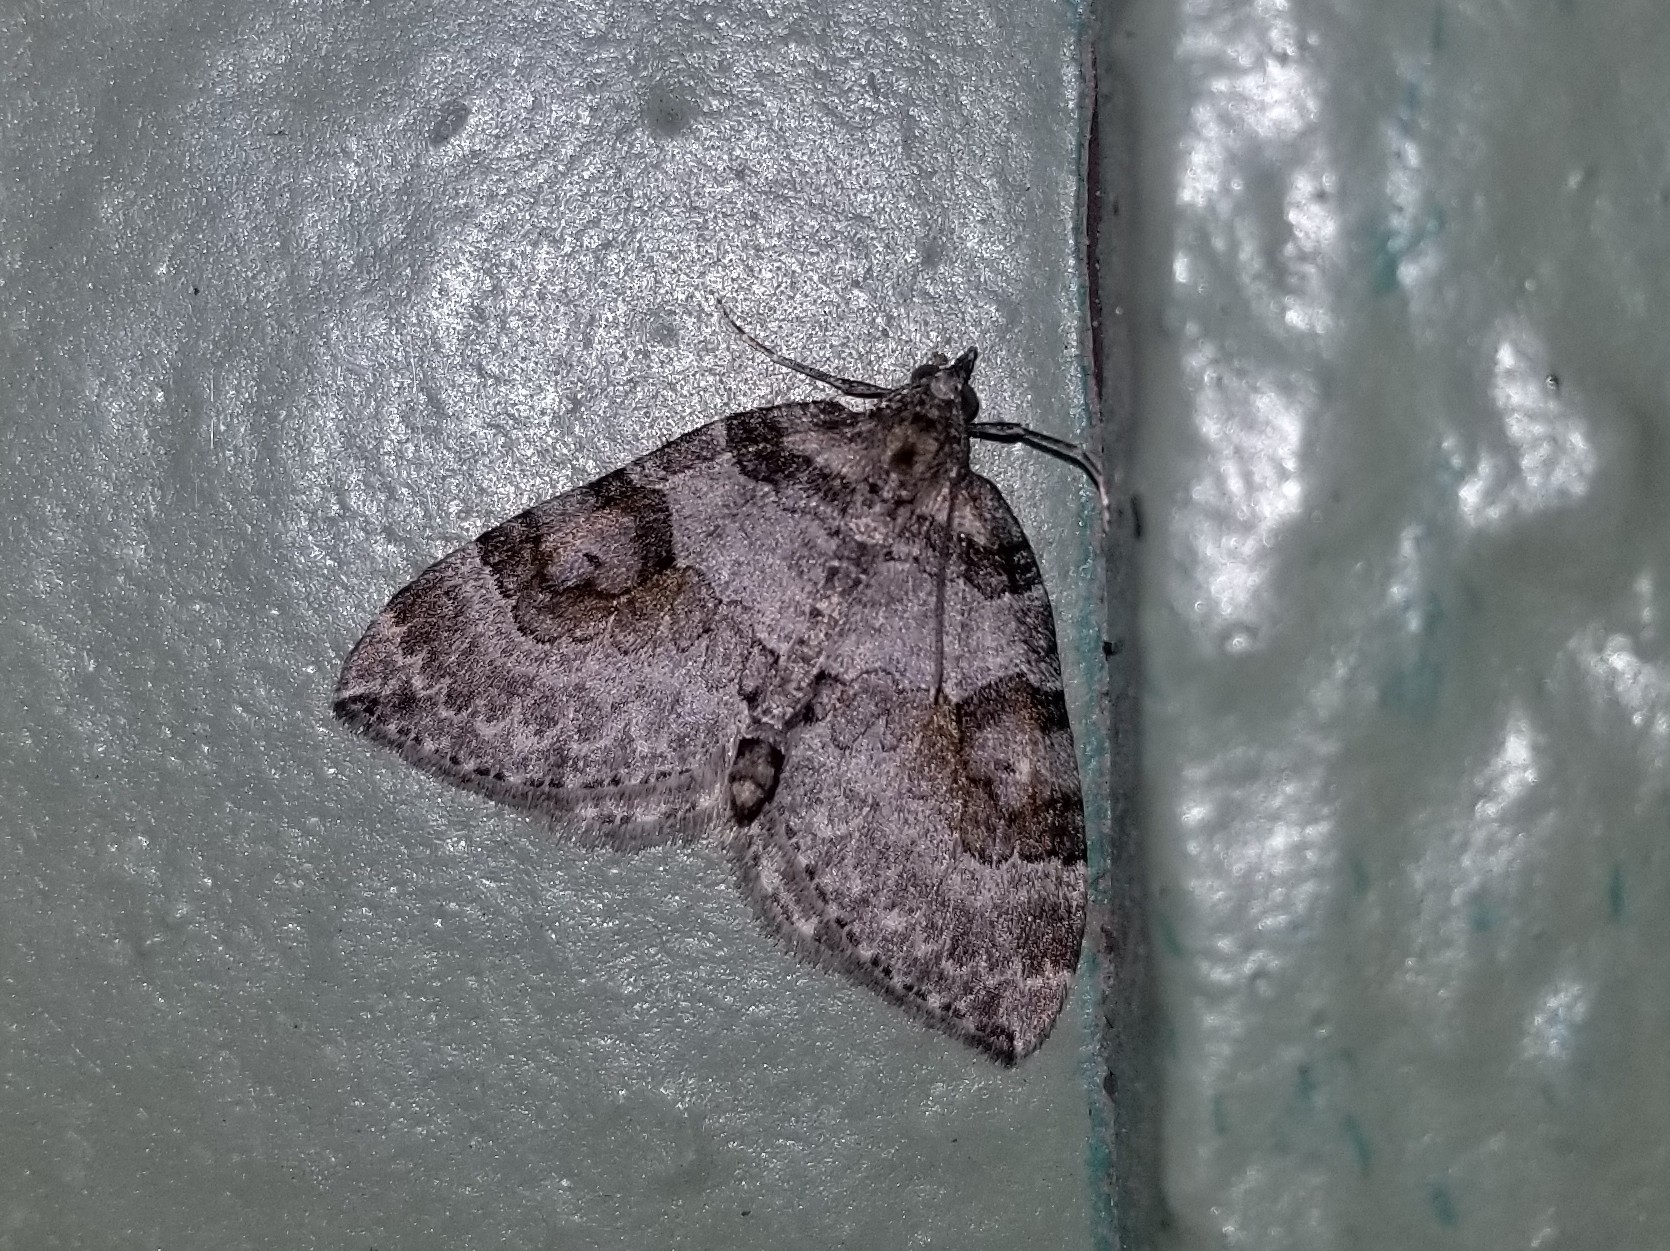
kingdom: Animalia
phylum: Arthropoda
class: Insecta
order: Lepidoptera
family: Geometridae
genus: Plemyria
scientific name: Plemyria georgii
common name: George's carpet moth
